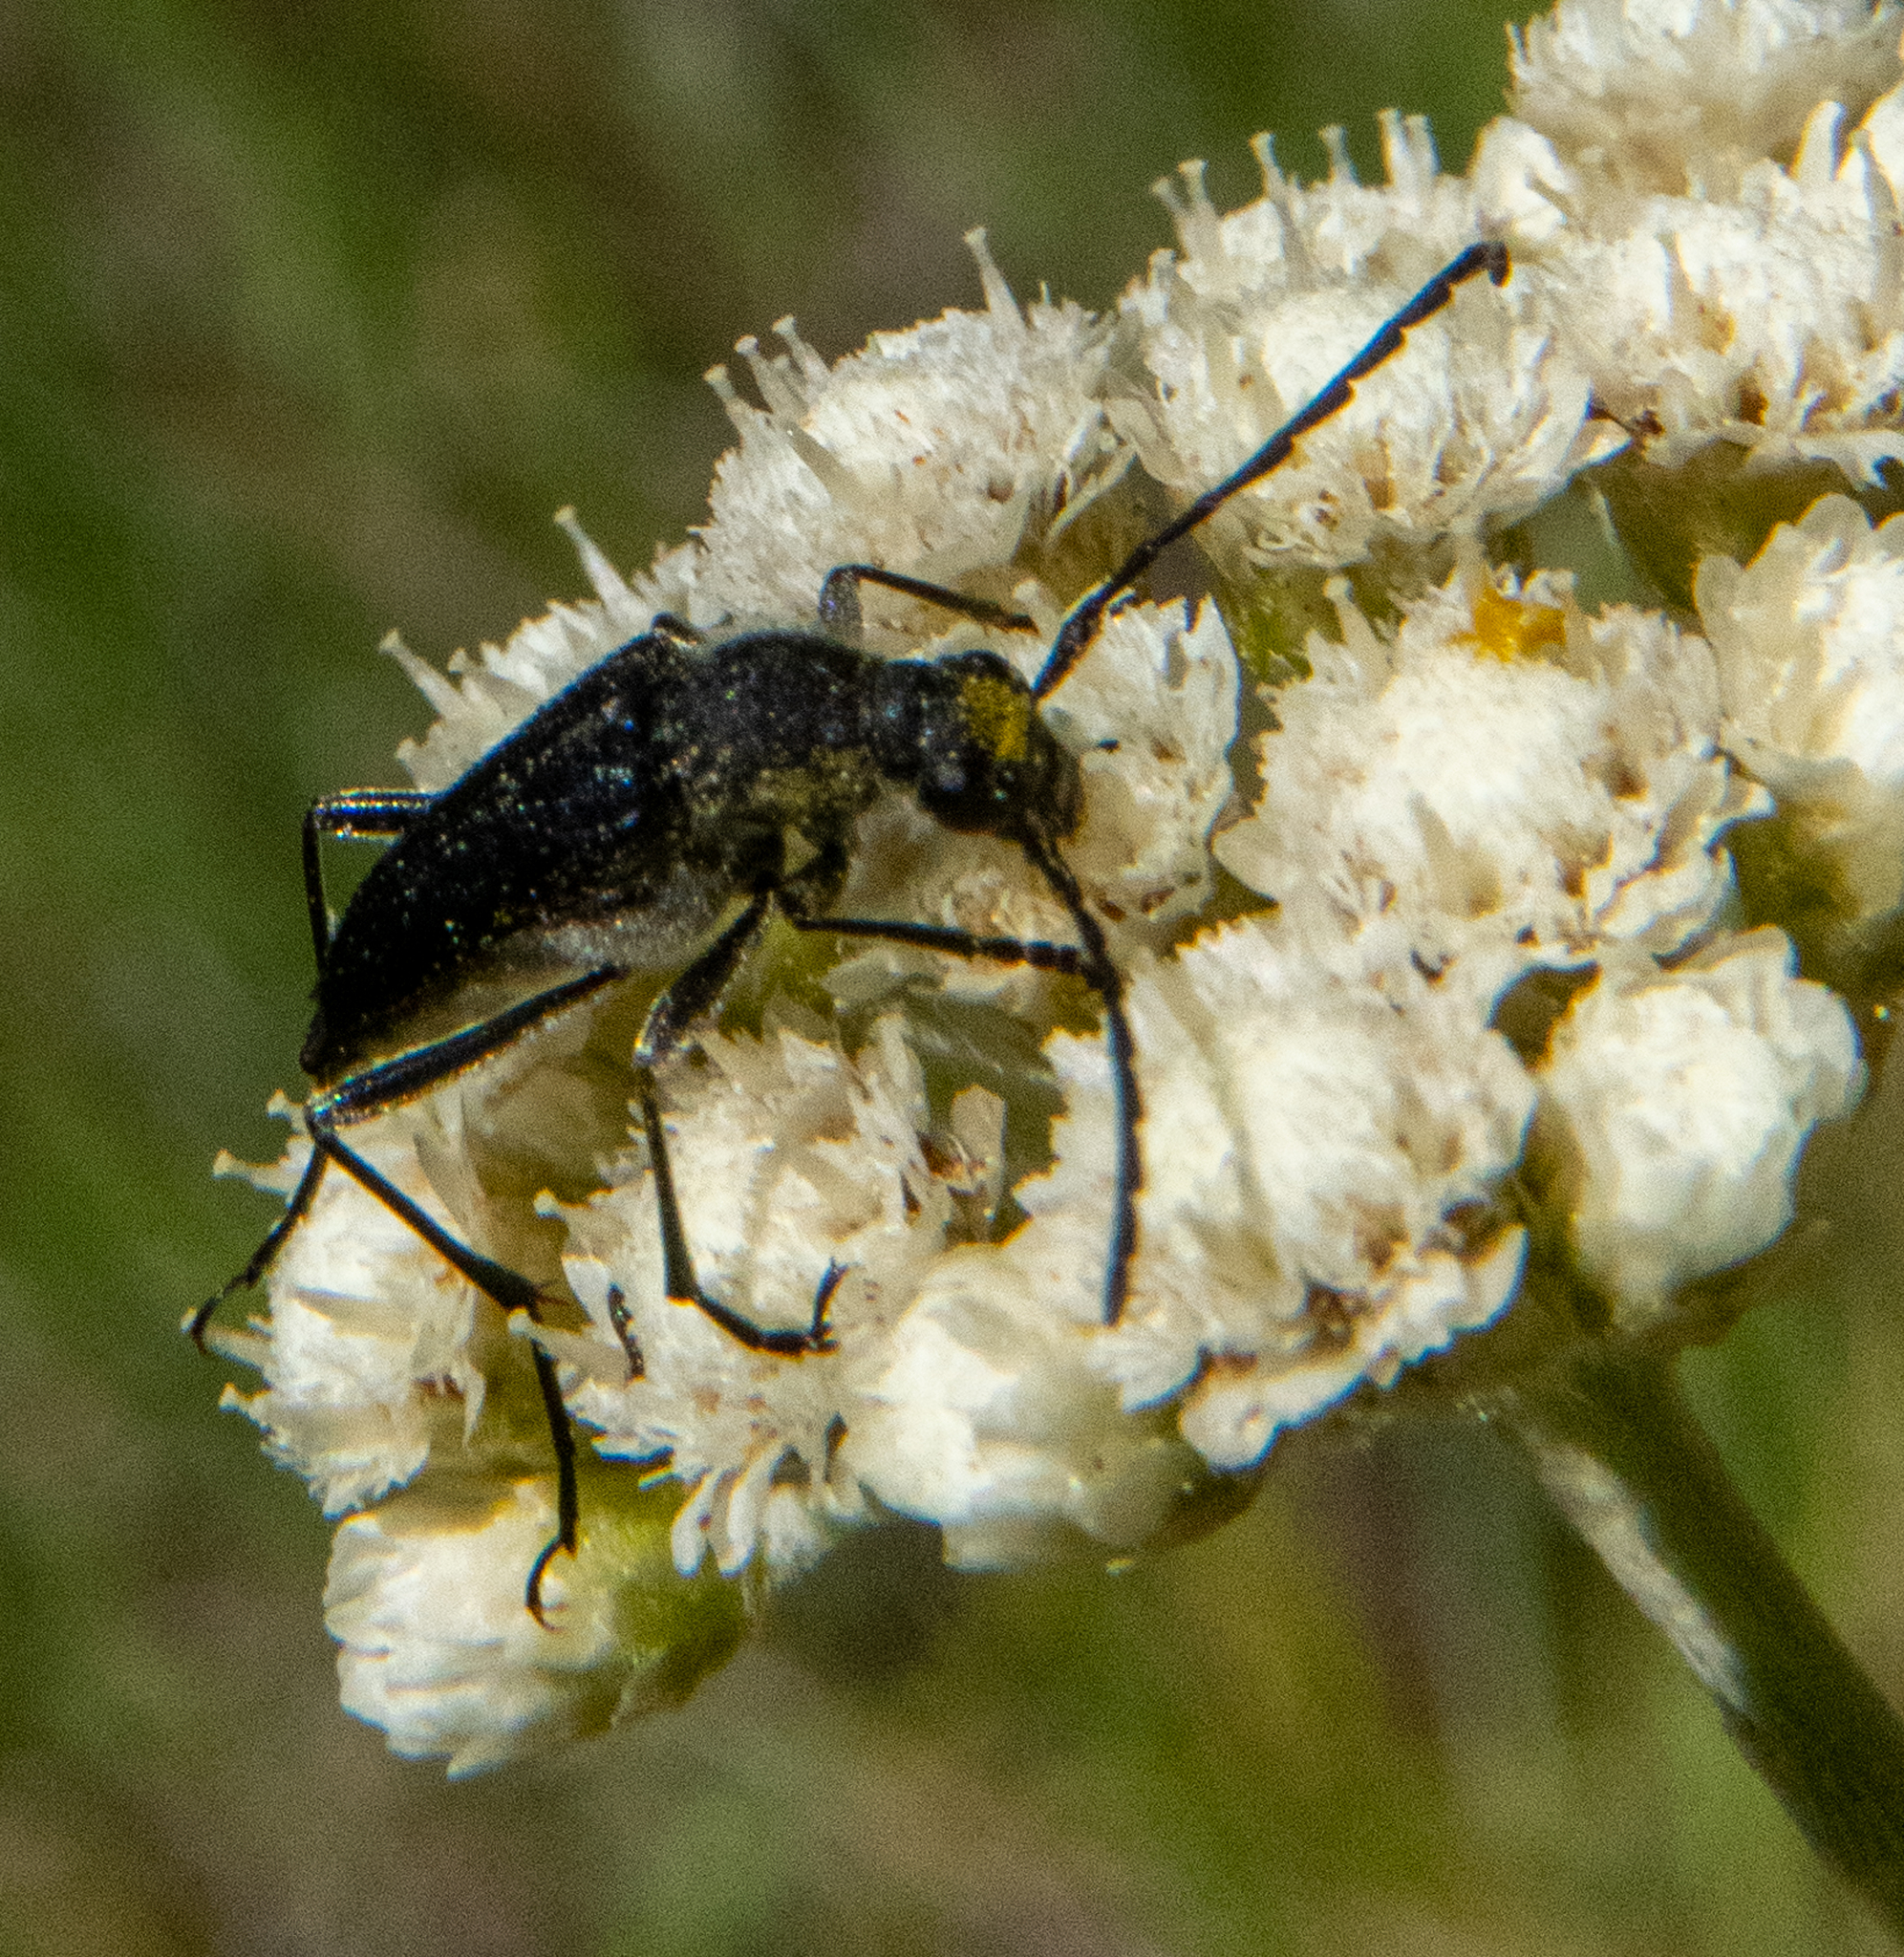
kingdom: Animalia
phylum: Arthropoda
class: Insecta
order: Coleoptera
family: Cerambycidae
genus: Anastrangalia
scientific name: Anastrangalia laetifica
